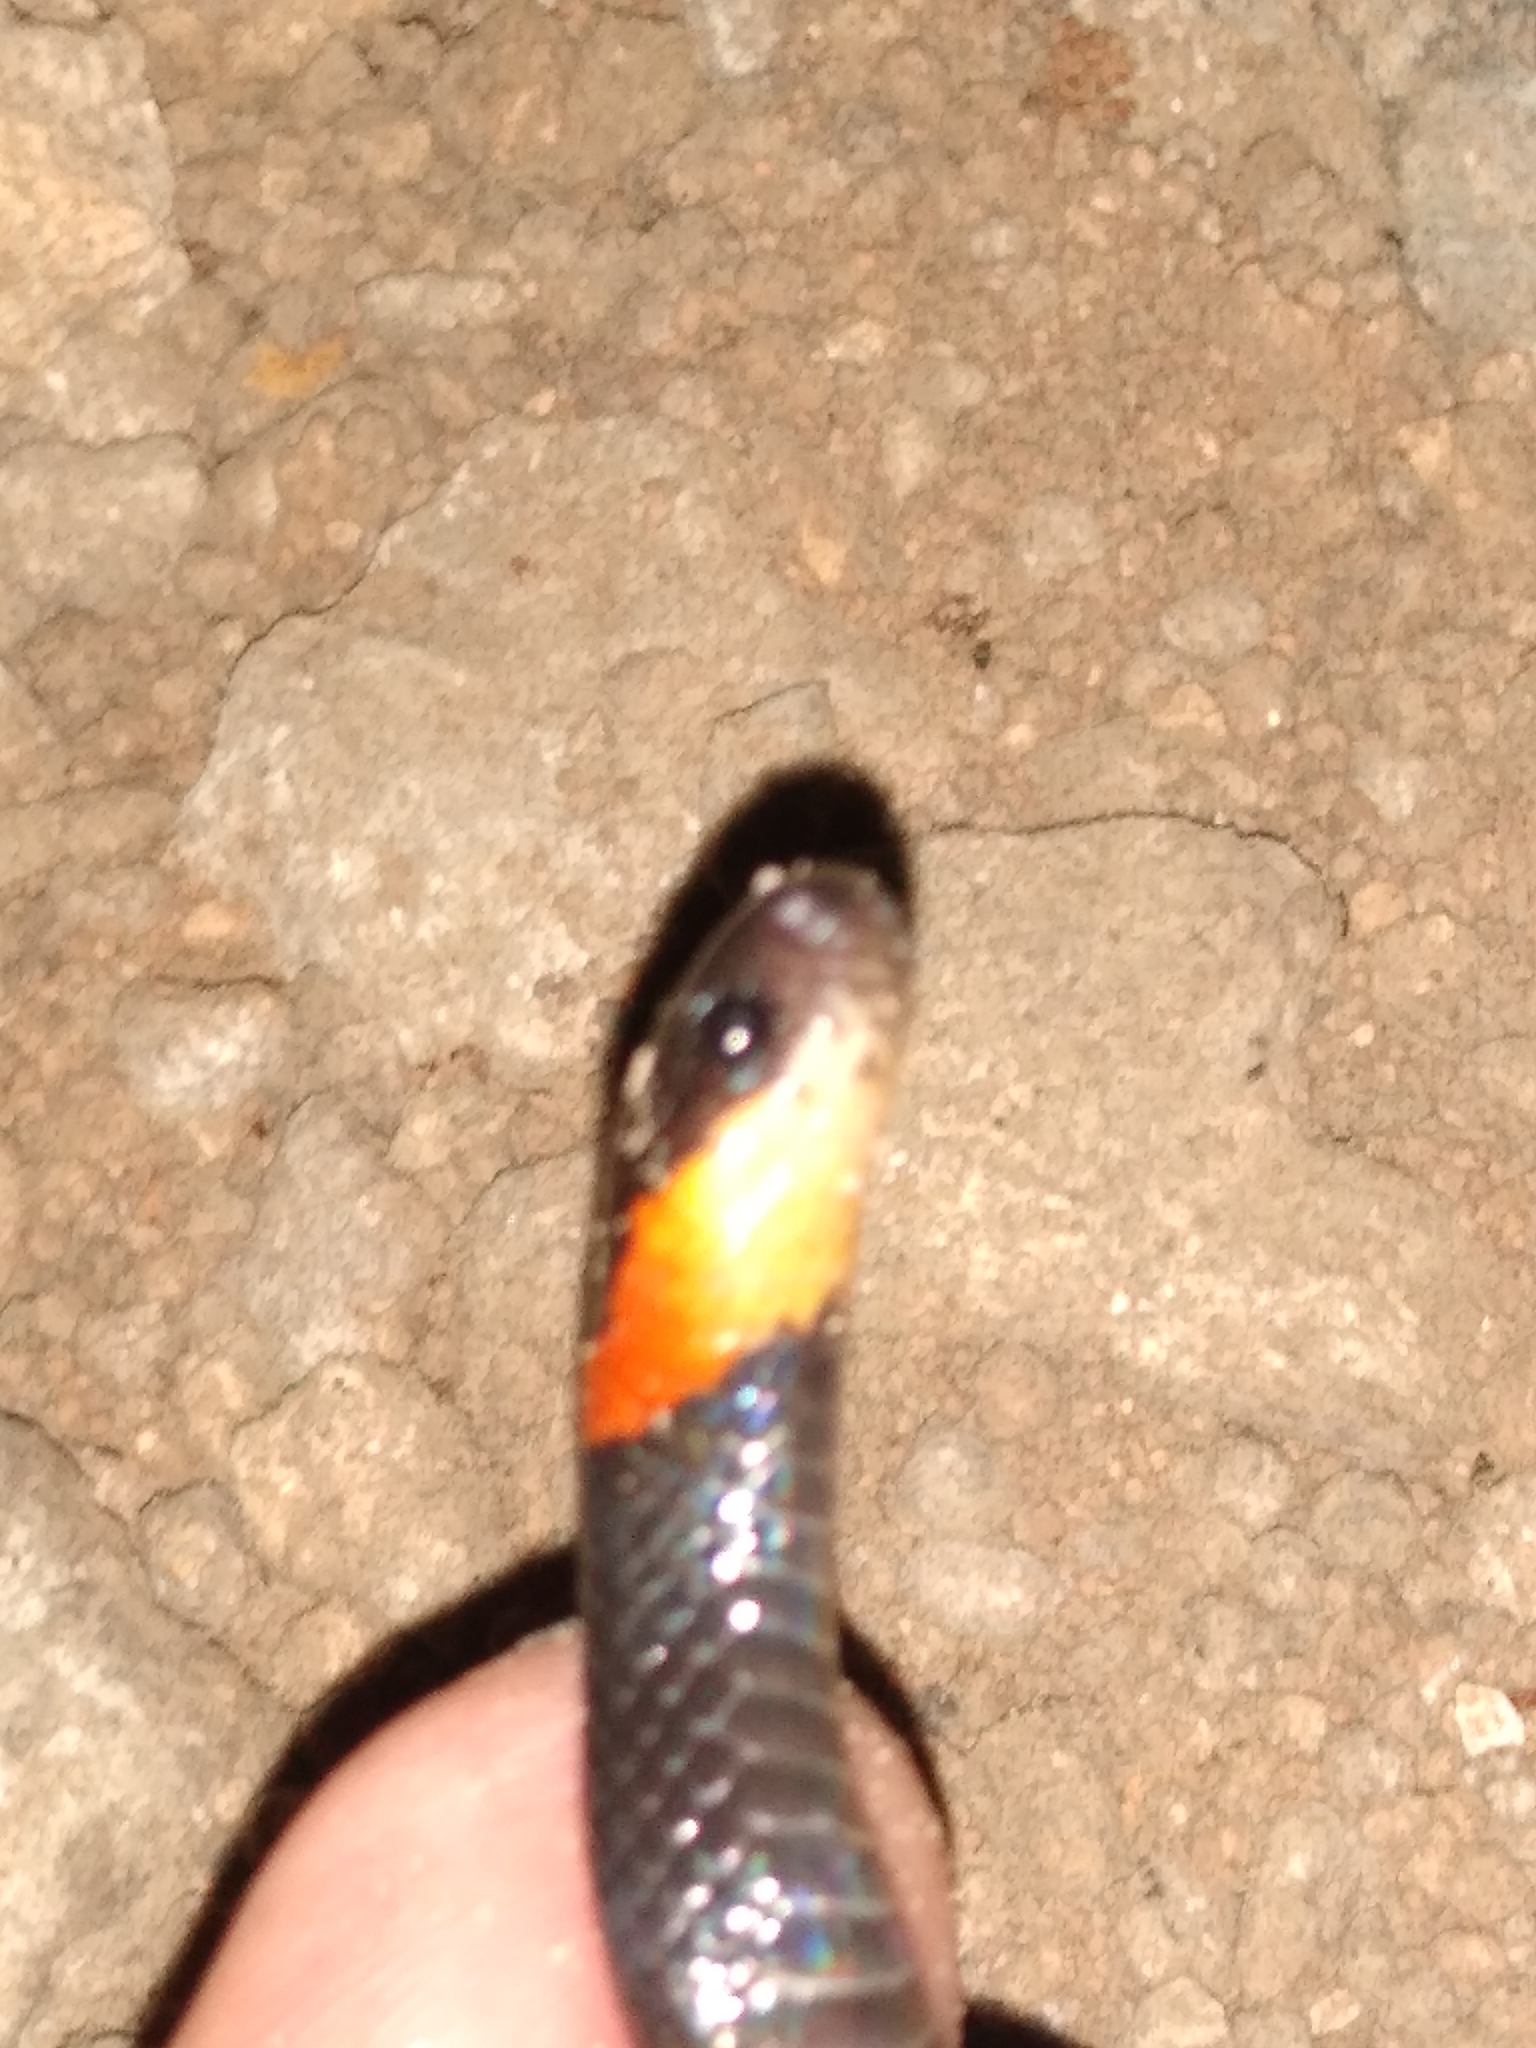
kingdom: Animalia
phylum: Chordata
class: Squamata
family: Colubridae
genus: Geophis
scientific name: Geophis
